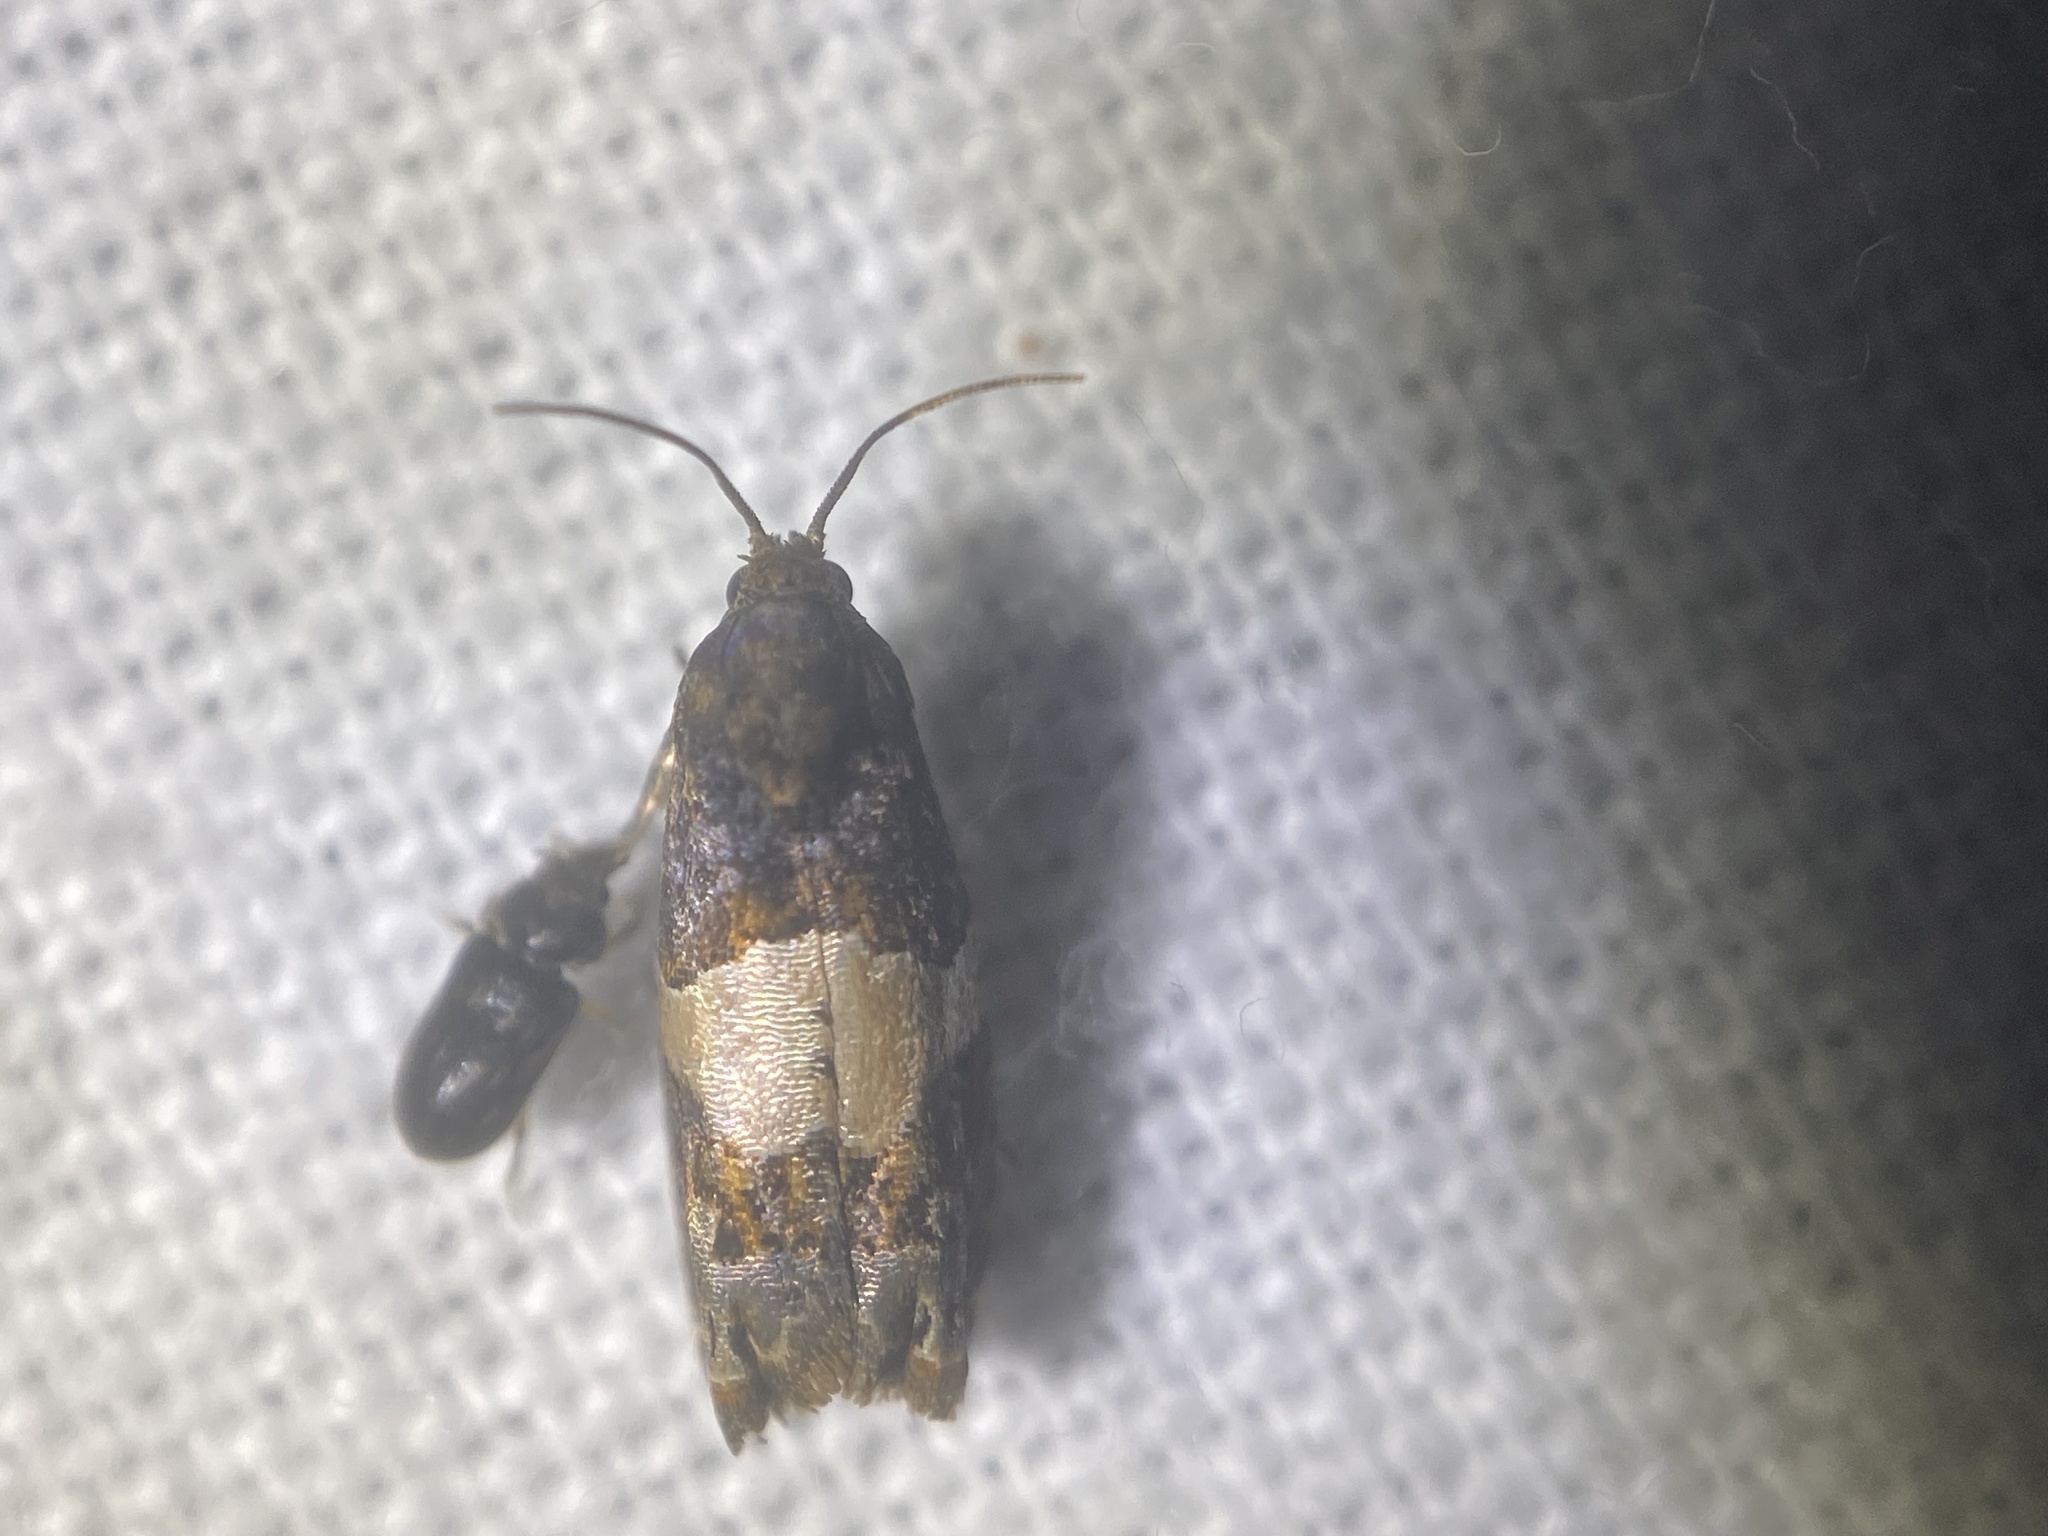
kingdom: Animalia
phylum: Arthropoda
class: Insecta
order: Lepidoptera
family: Tortricidae
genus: Epiblema
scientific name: Epiblema glenni
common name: Glenn's epiblema
